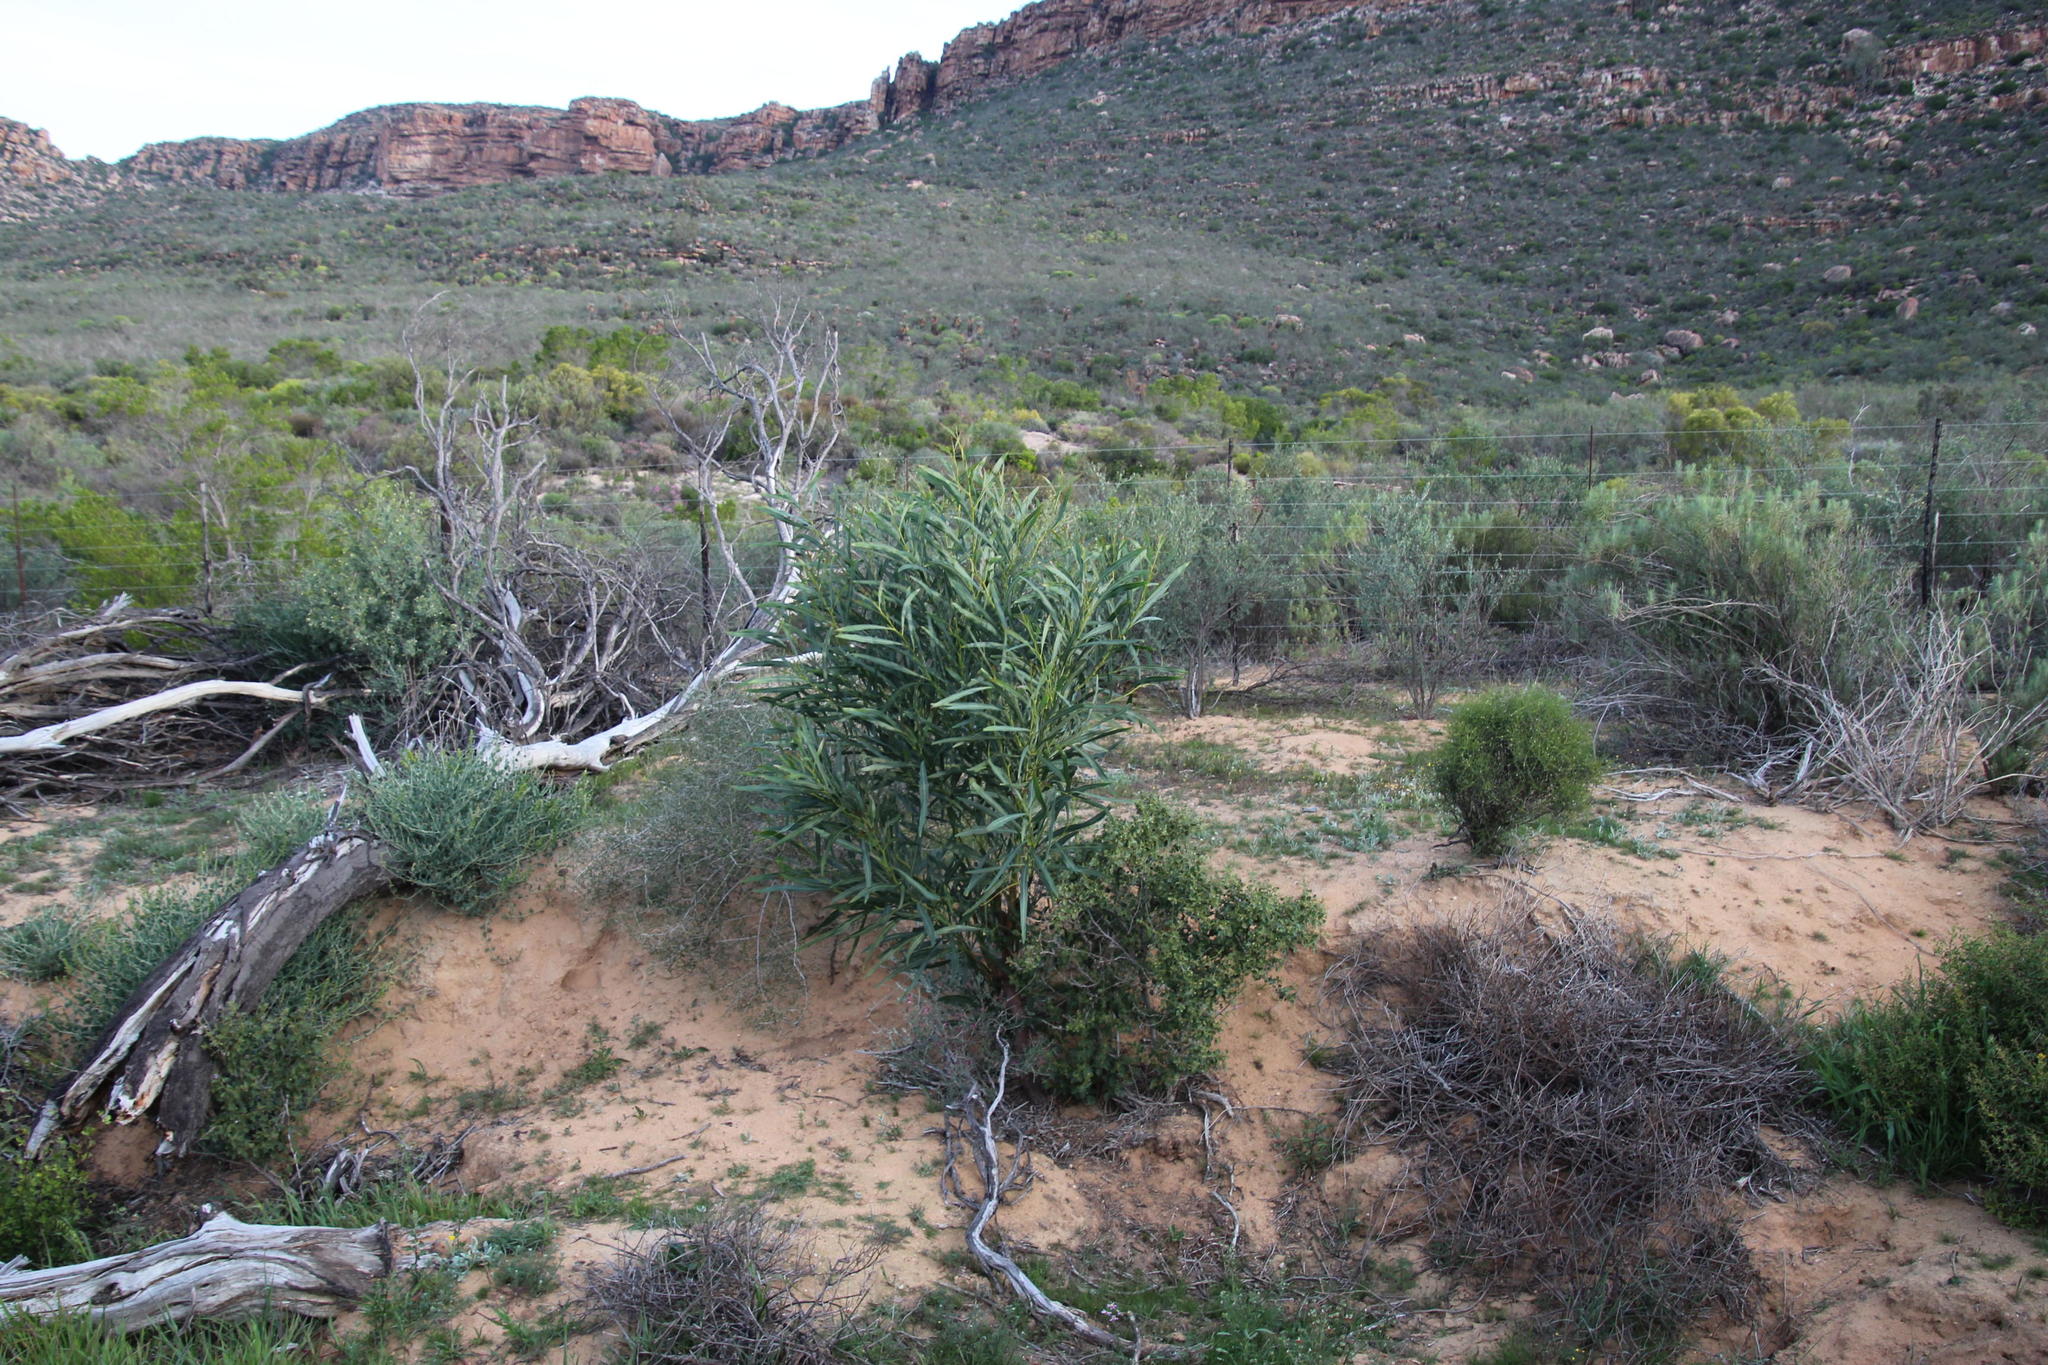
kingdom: Plantae
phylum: Tracheophyta
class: Magnoliopsida
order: Fabales
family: Fabaceae
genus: Acacia
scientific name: Acacia saligna
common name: Orange wattle
